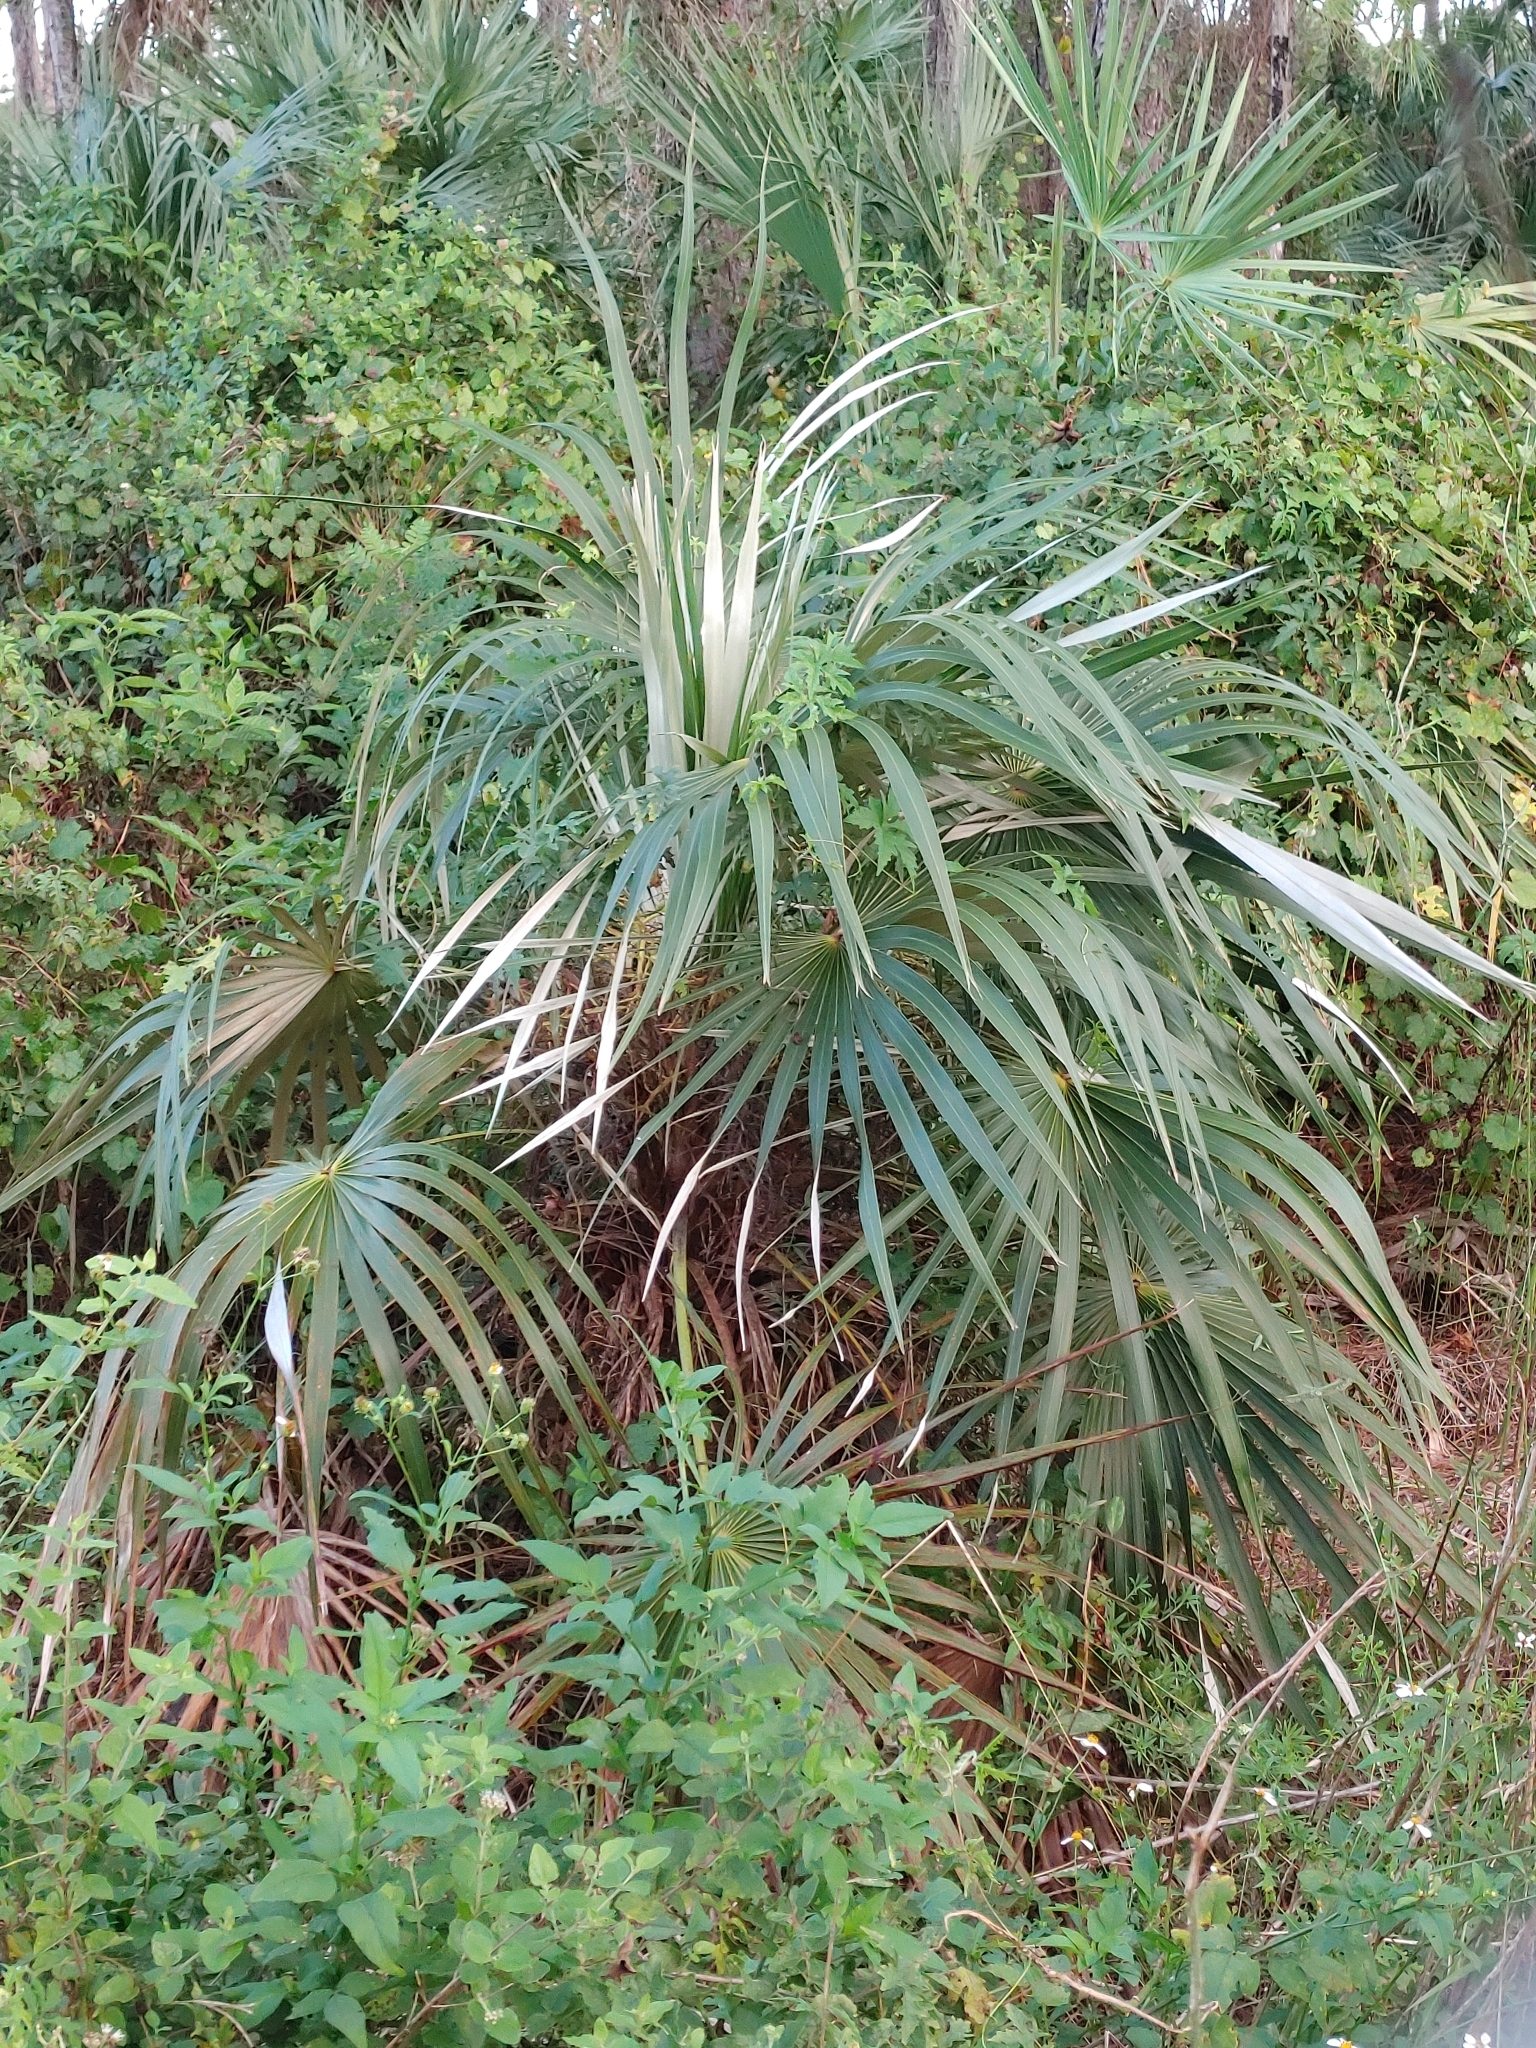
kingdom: Plantae
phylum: Tracheophyta
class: Liliopsida
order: Arecales
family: Arecaceae
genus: Coccothrinax
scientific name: Coccothrinax argentata
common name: Florida silver palm
